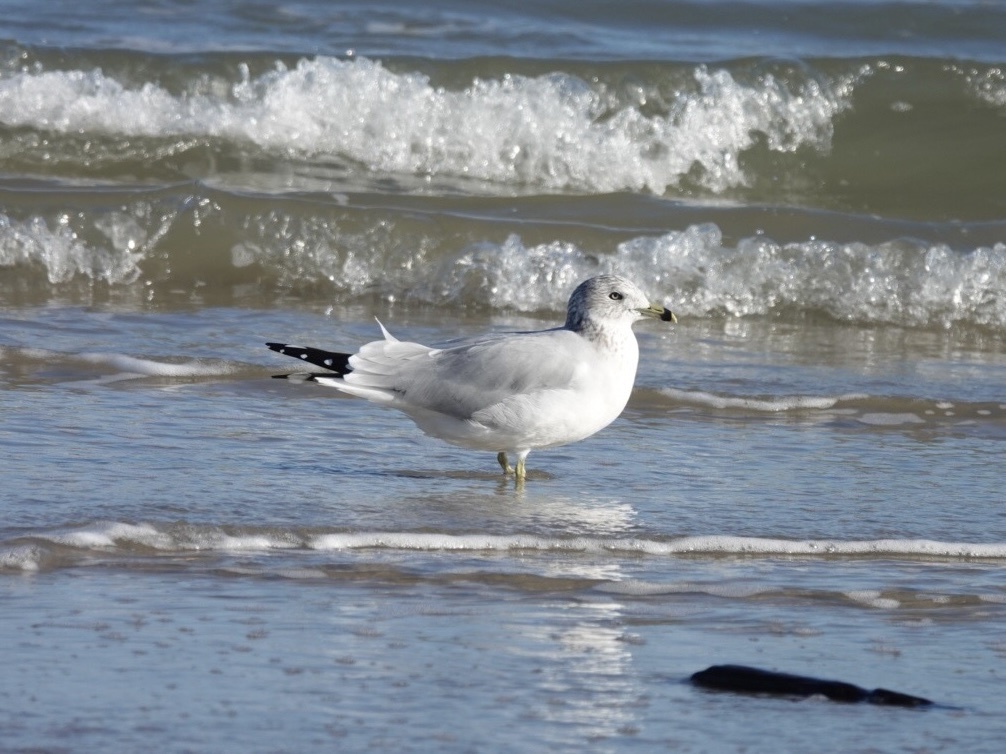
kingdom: Animalia
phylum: Chordata
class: Aves
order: Charadriiformes
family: Laridae
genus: Larus
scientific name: Larus delawarensis
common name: Ring-billed gull
